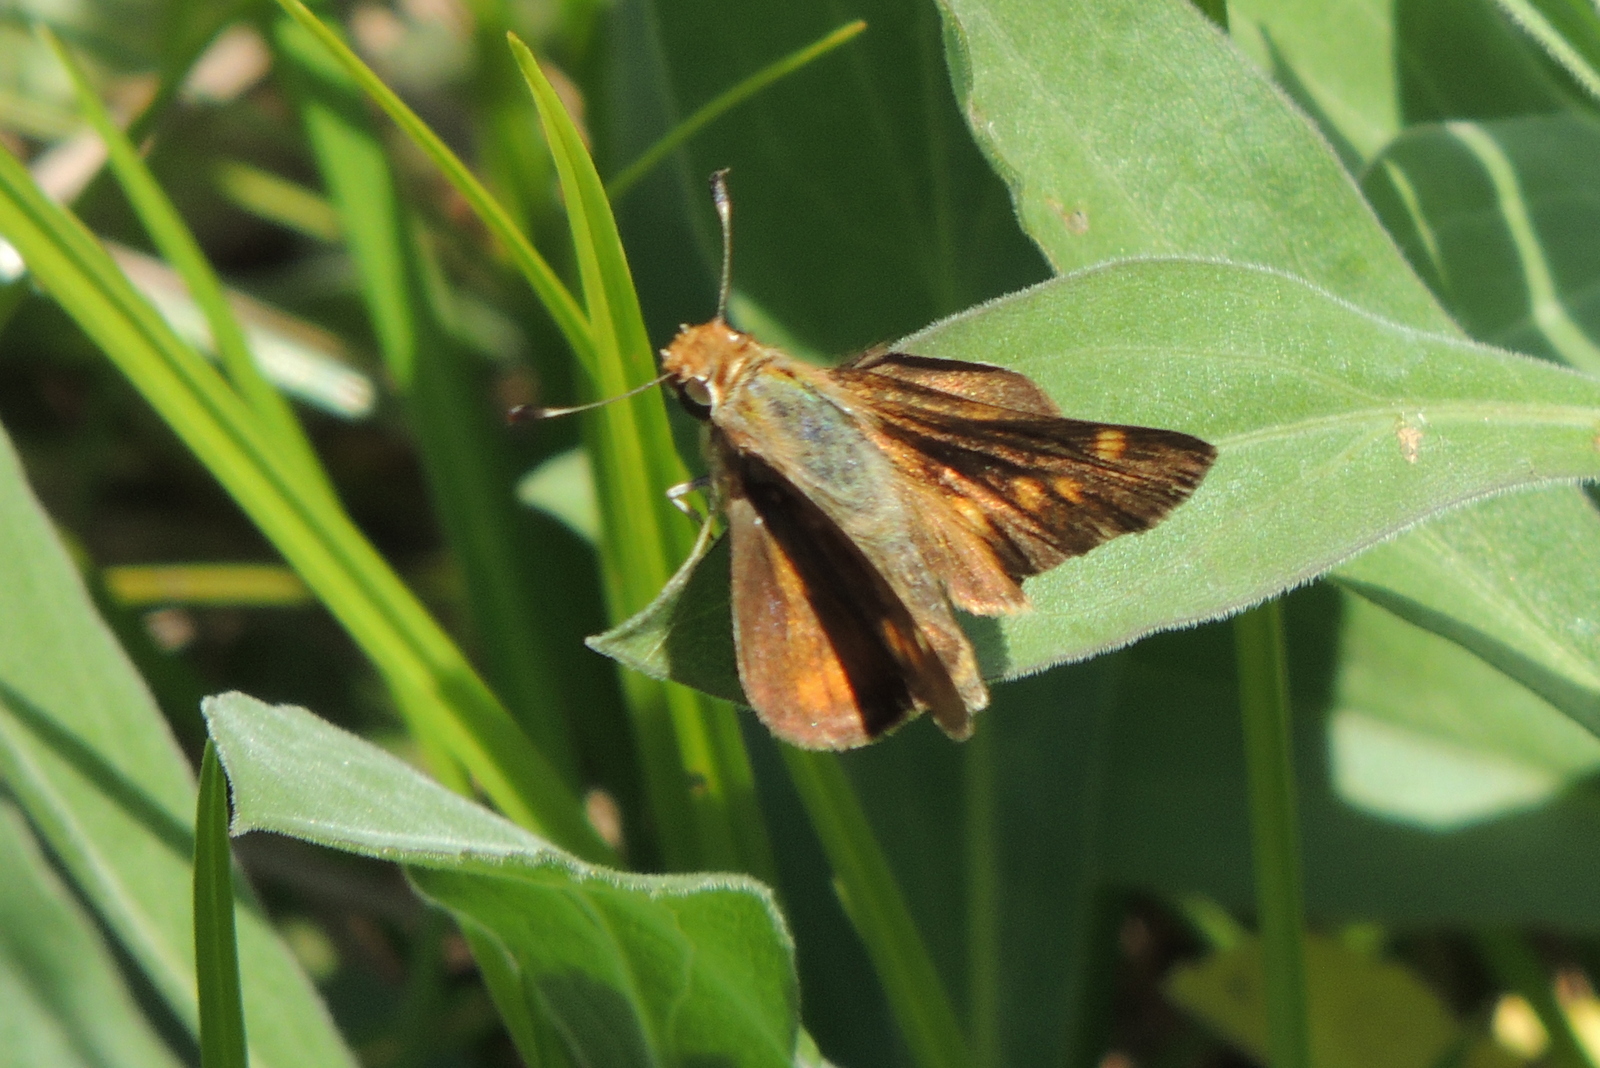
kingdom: Animalia
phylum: Arthropoda
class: Insecta
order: Lepidoptera
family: Hesperiidae
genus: Lon
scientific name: Lon melane
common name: Umber skipper
